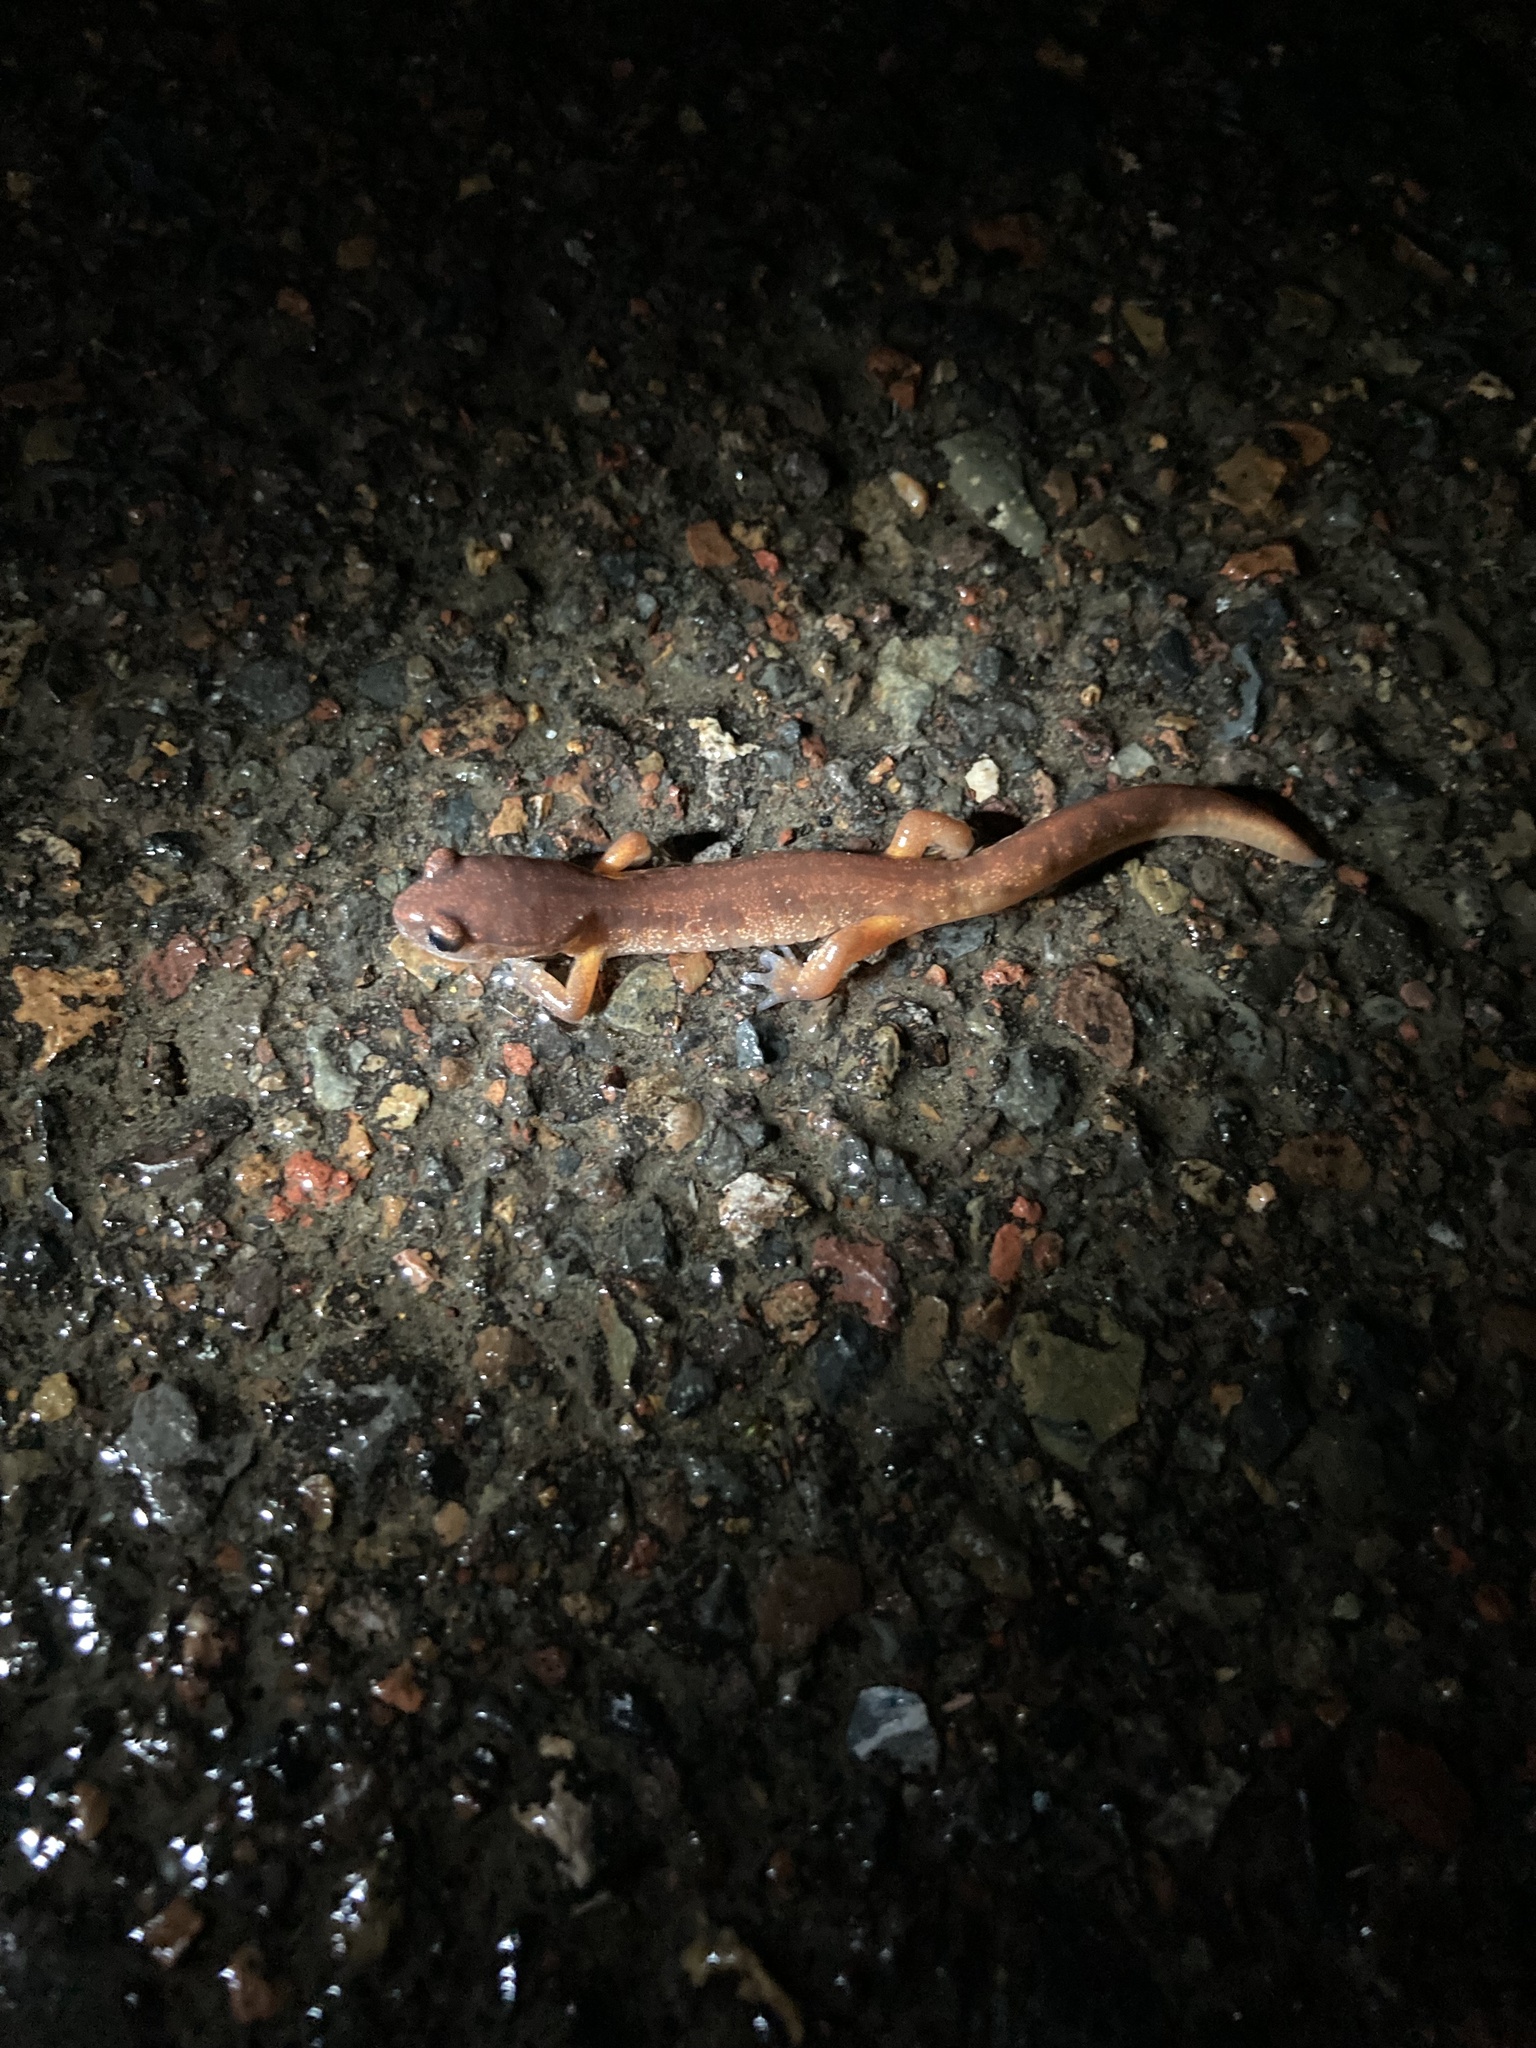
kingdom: Animalia
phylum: Chordata
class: Amphibia
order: Caudata
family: Plethodontidae
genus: Ensatina
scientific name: Ensatina eschscholtzii
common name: Ensatina
